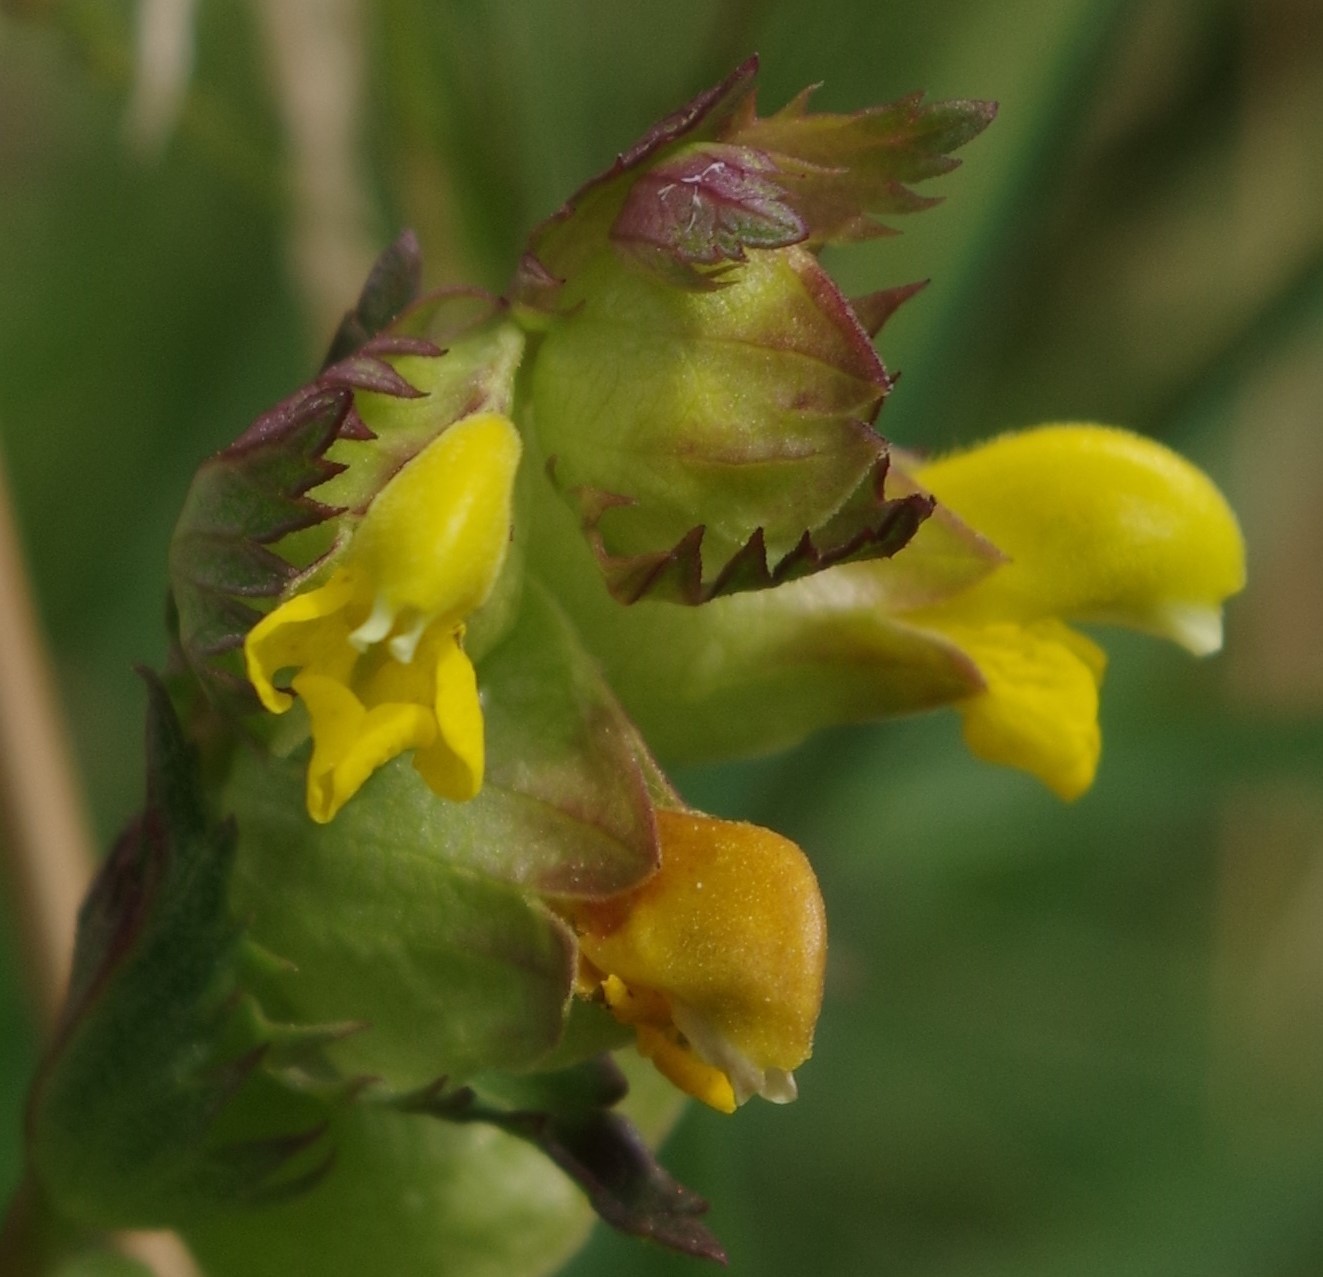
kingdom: Plantae
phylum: Tracheophyta
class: Magnoliopsida
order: Lamiales
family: Orobanchaceae
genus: Rhinanthus
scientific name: Rhinanthus minor
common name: Yellow-rattle
